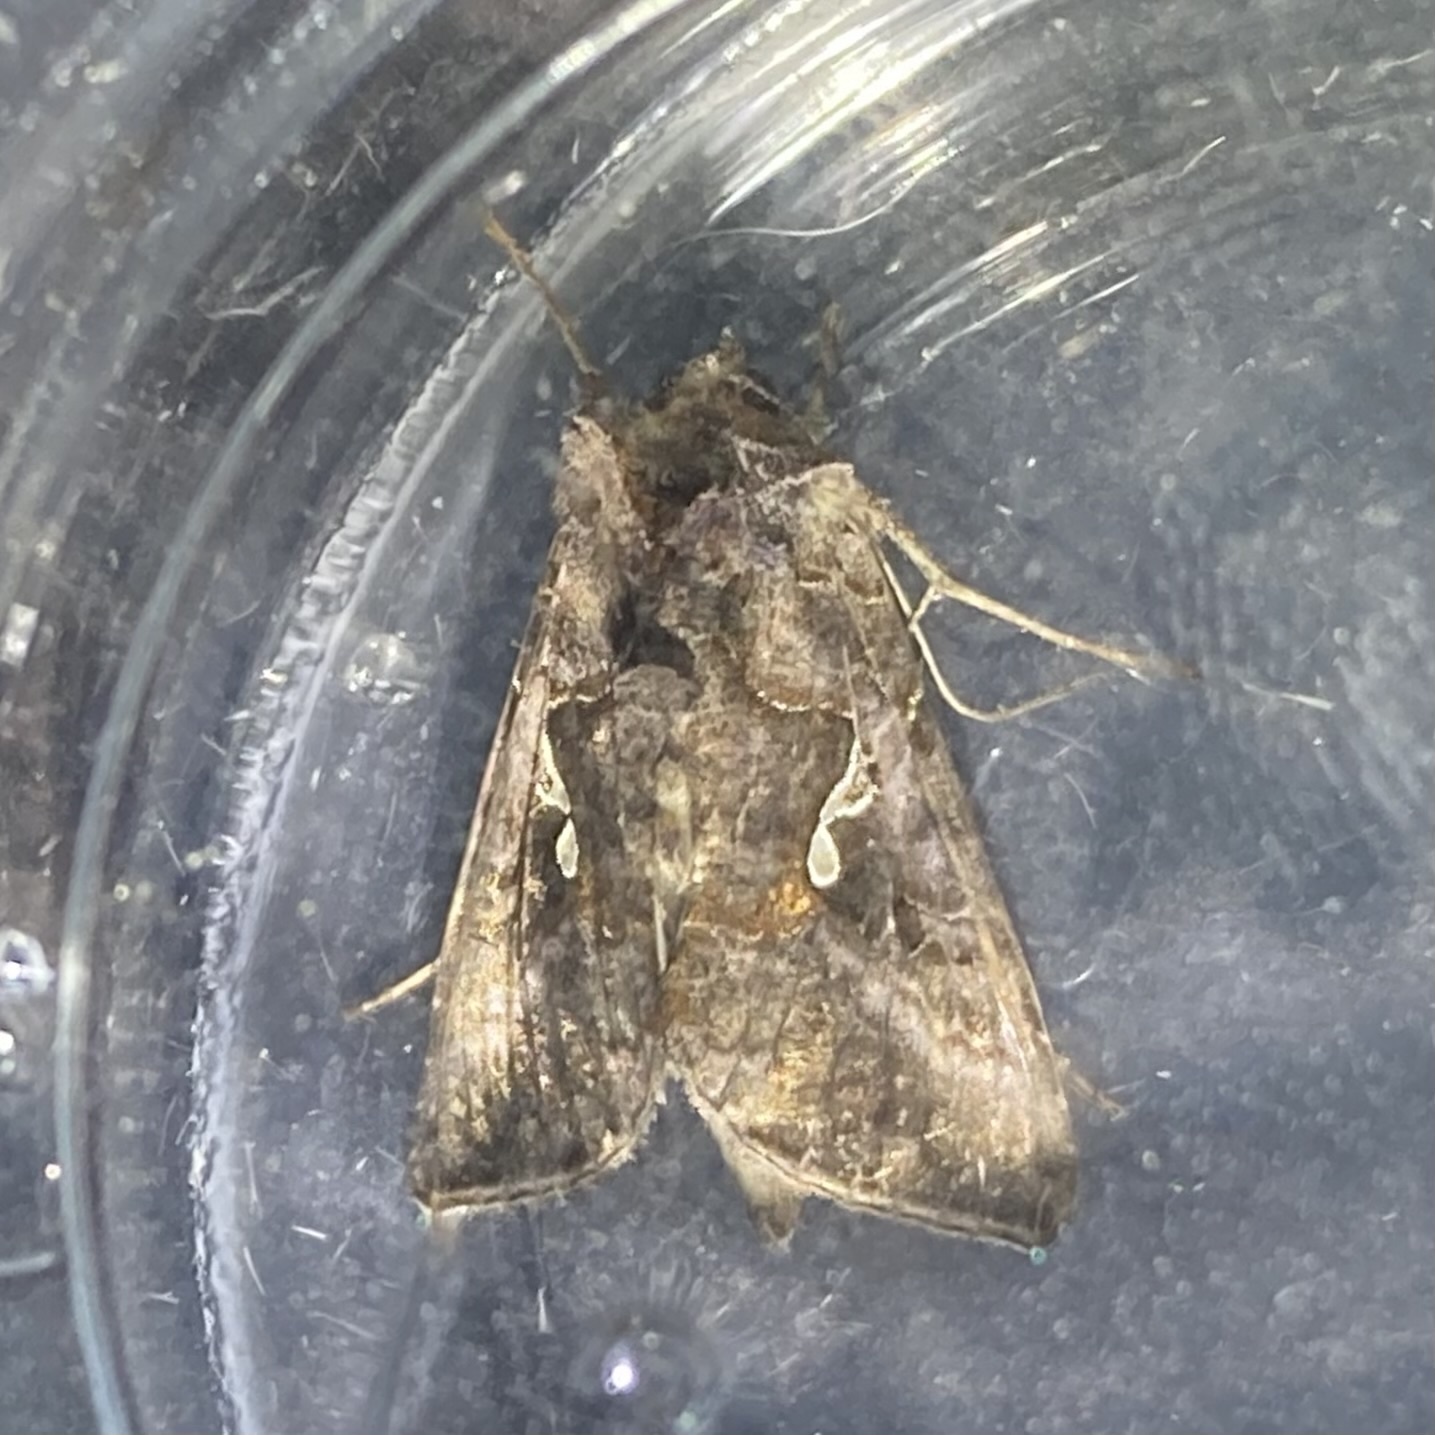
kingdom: Animalia
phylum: Arthropoda
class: Insecta
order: Lepidoptera
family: Noctuidae
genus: Autographa
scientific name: Autographa precationis
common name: Common looper moth
